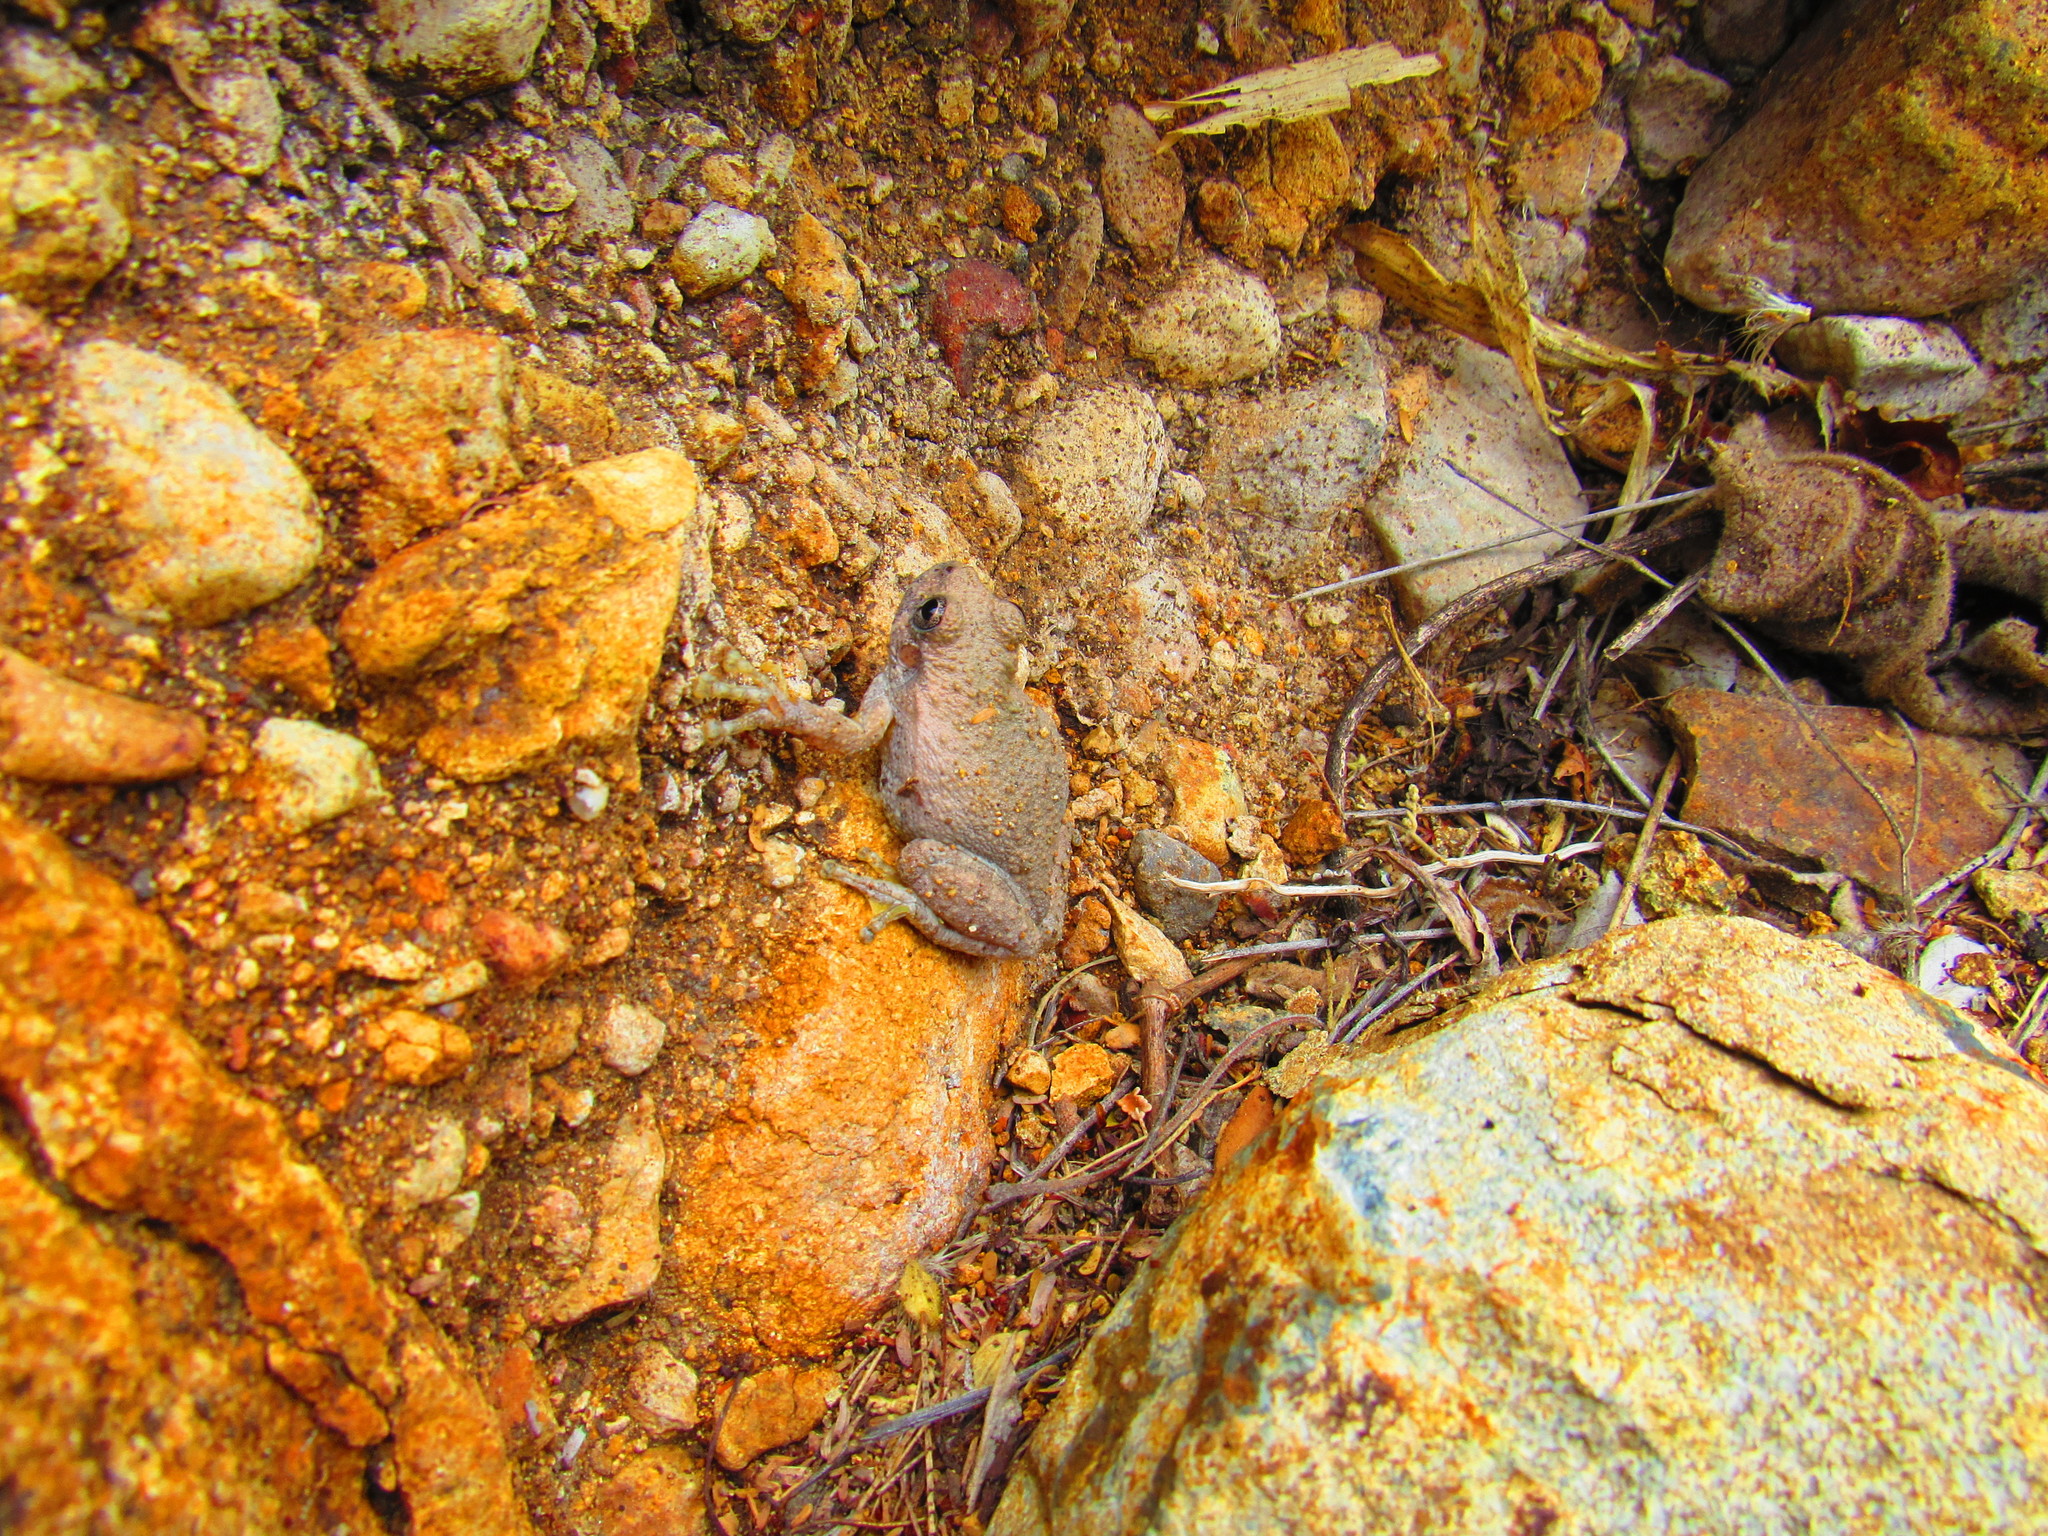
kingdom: Animalia
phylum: Chordata
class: Amphibia
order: Anura
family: Hylidae
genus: Dryophytes
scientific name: Dryophytes arenicolor
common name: Canyon treefrog
